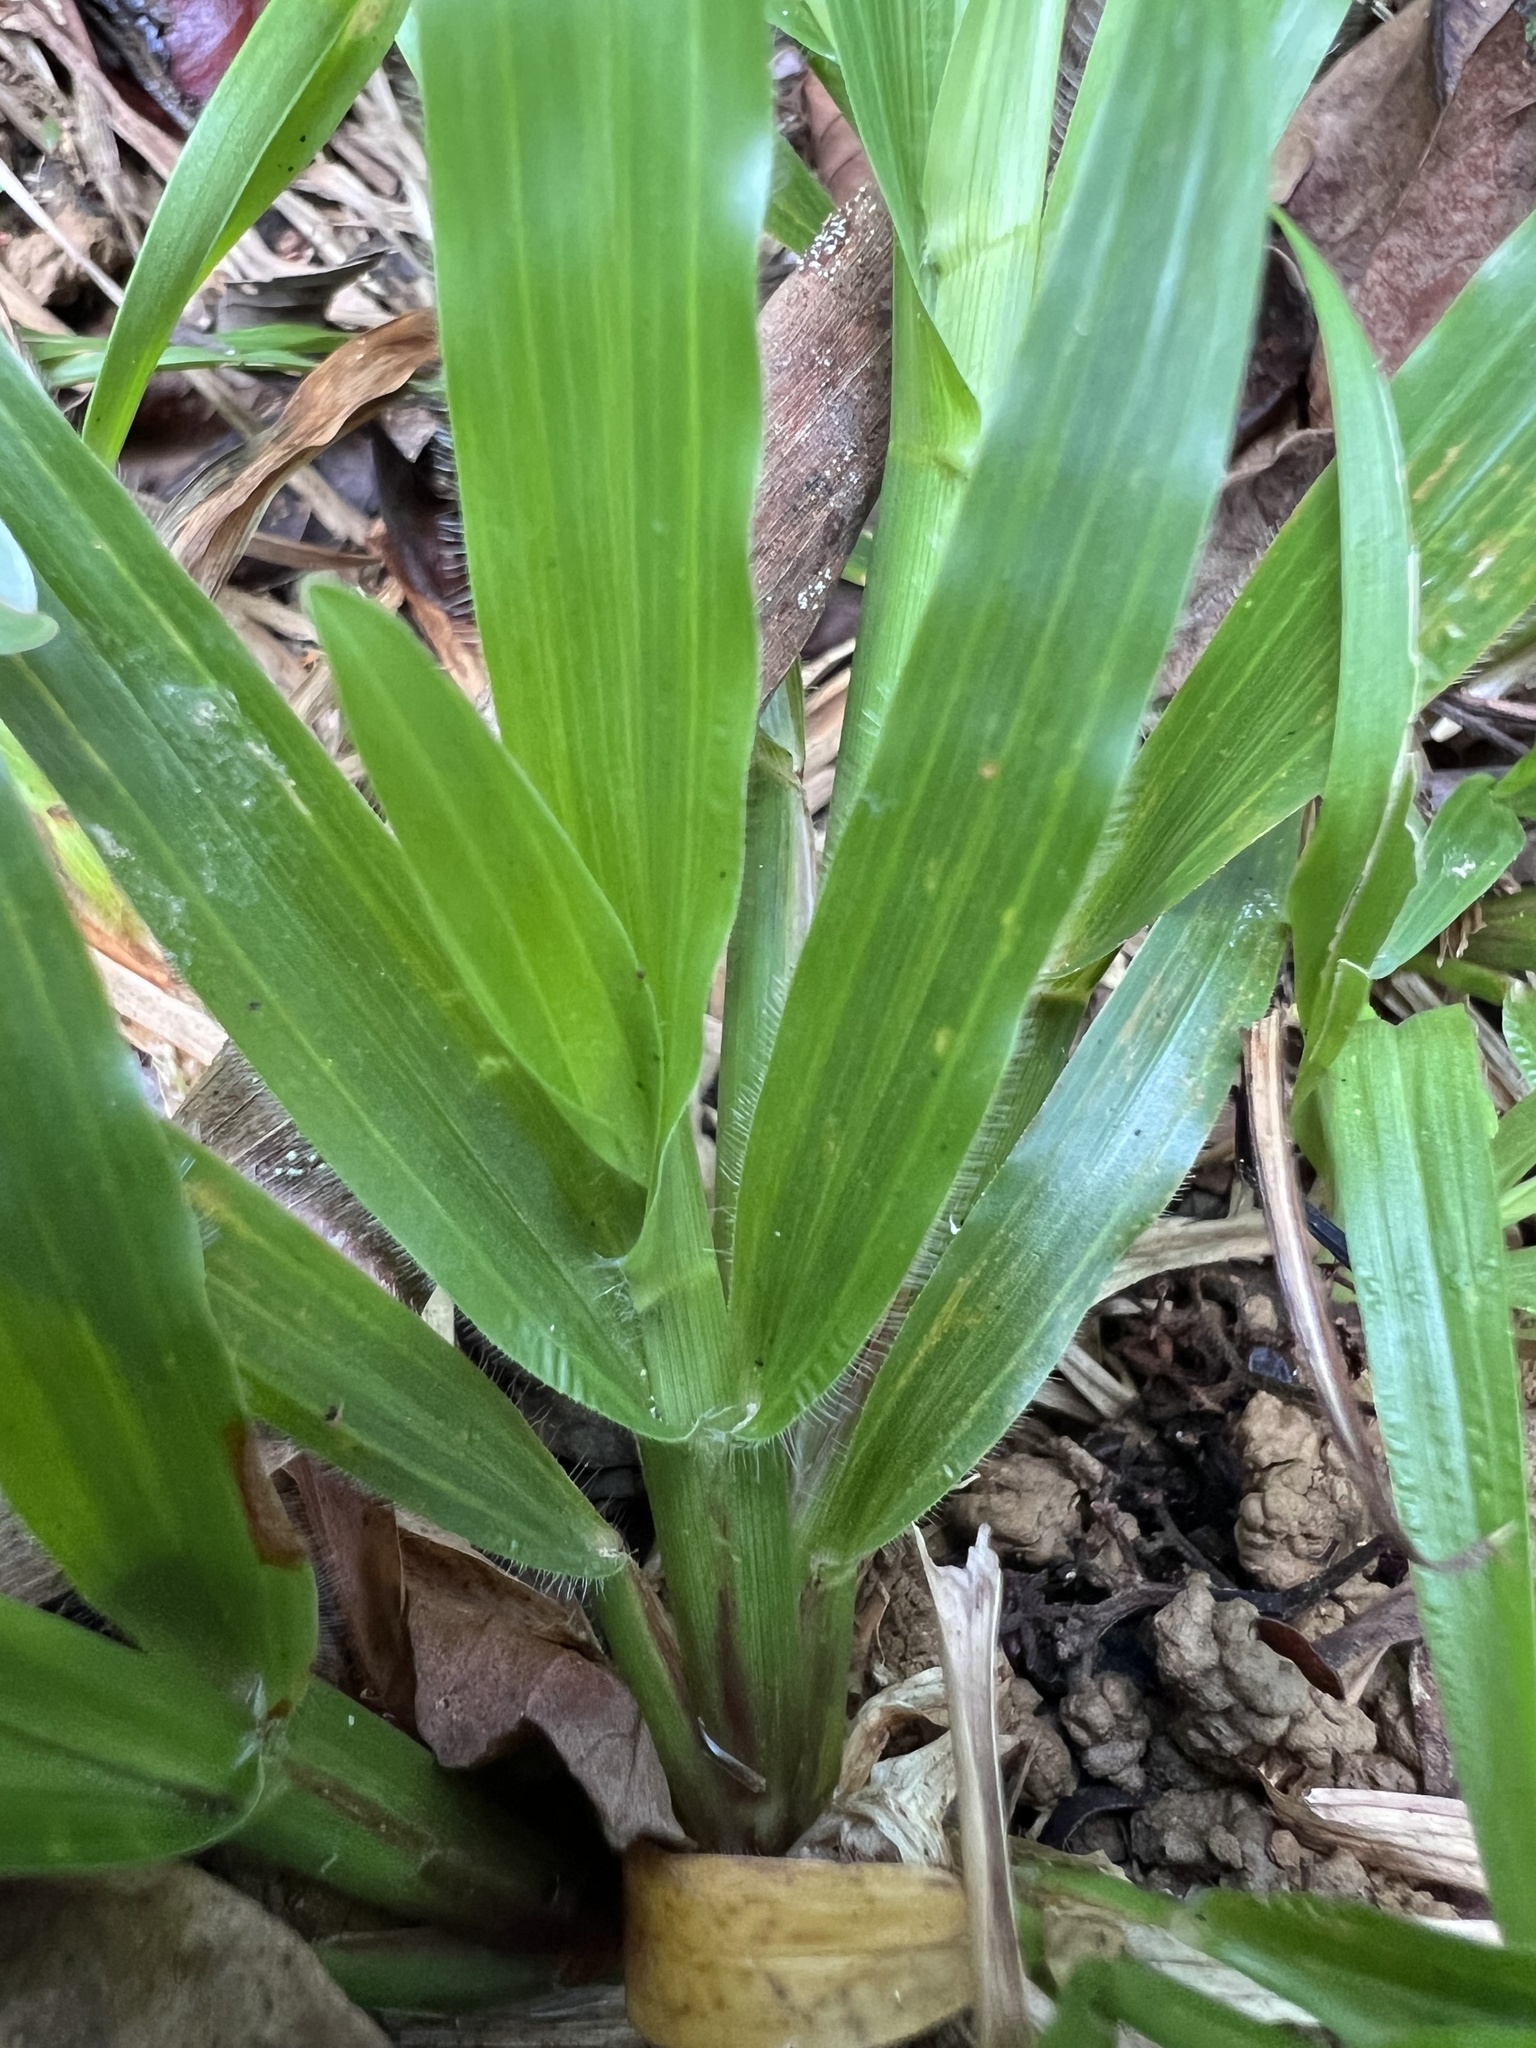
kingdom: Plantae
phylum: Tracheophyta
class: Liliopsida
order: Poales
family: Poaceae
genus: Axonopus
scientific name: Axonopus compressus
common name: American carpet grass
